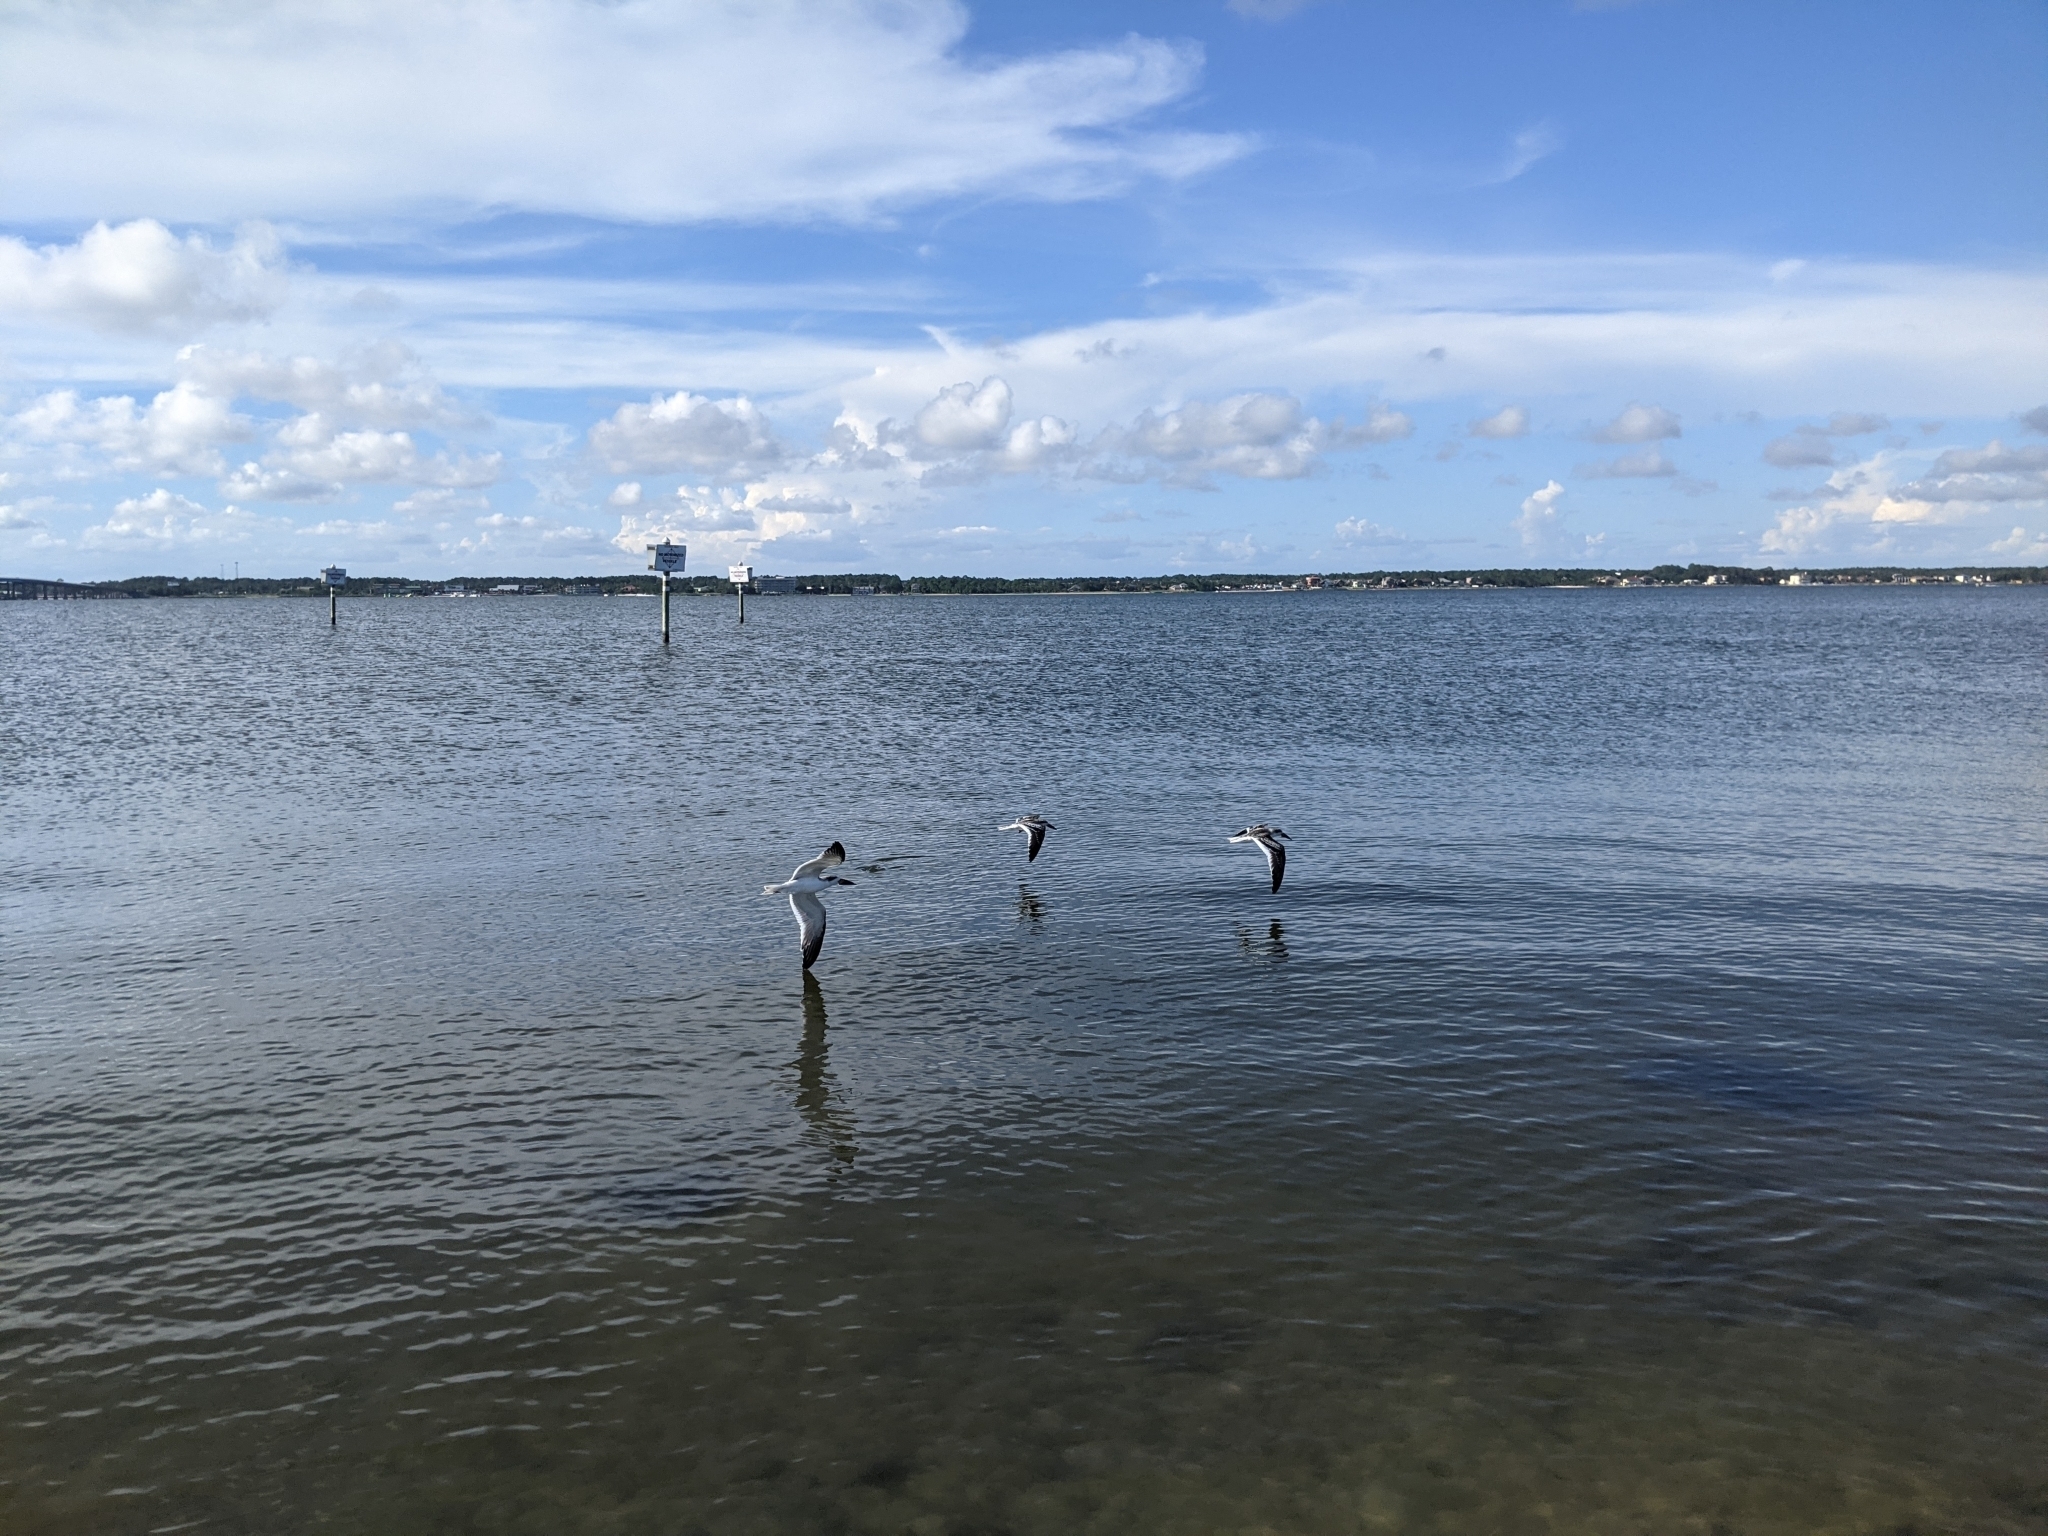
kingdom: Animalia
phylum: Chordata
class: Aves
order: Charadriiformes
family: Laridae
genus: Rynchops
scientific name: Rynchops niger
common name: Black skimmer
